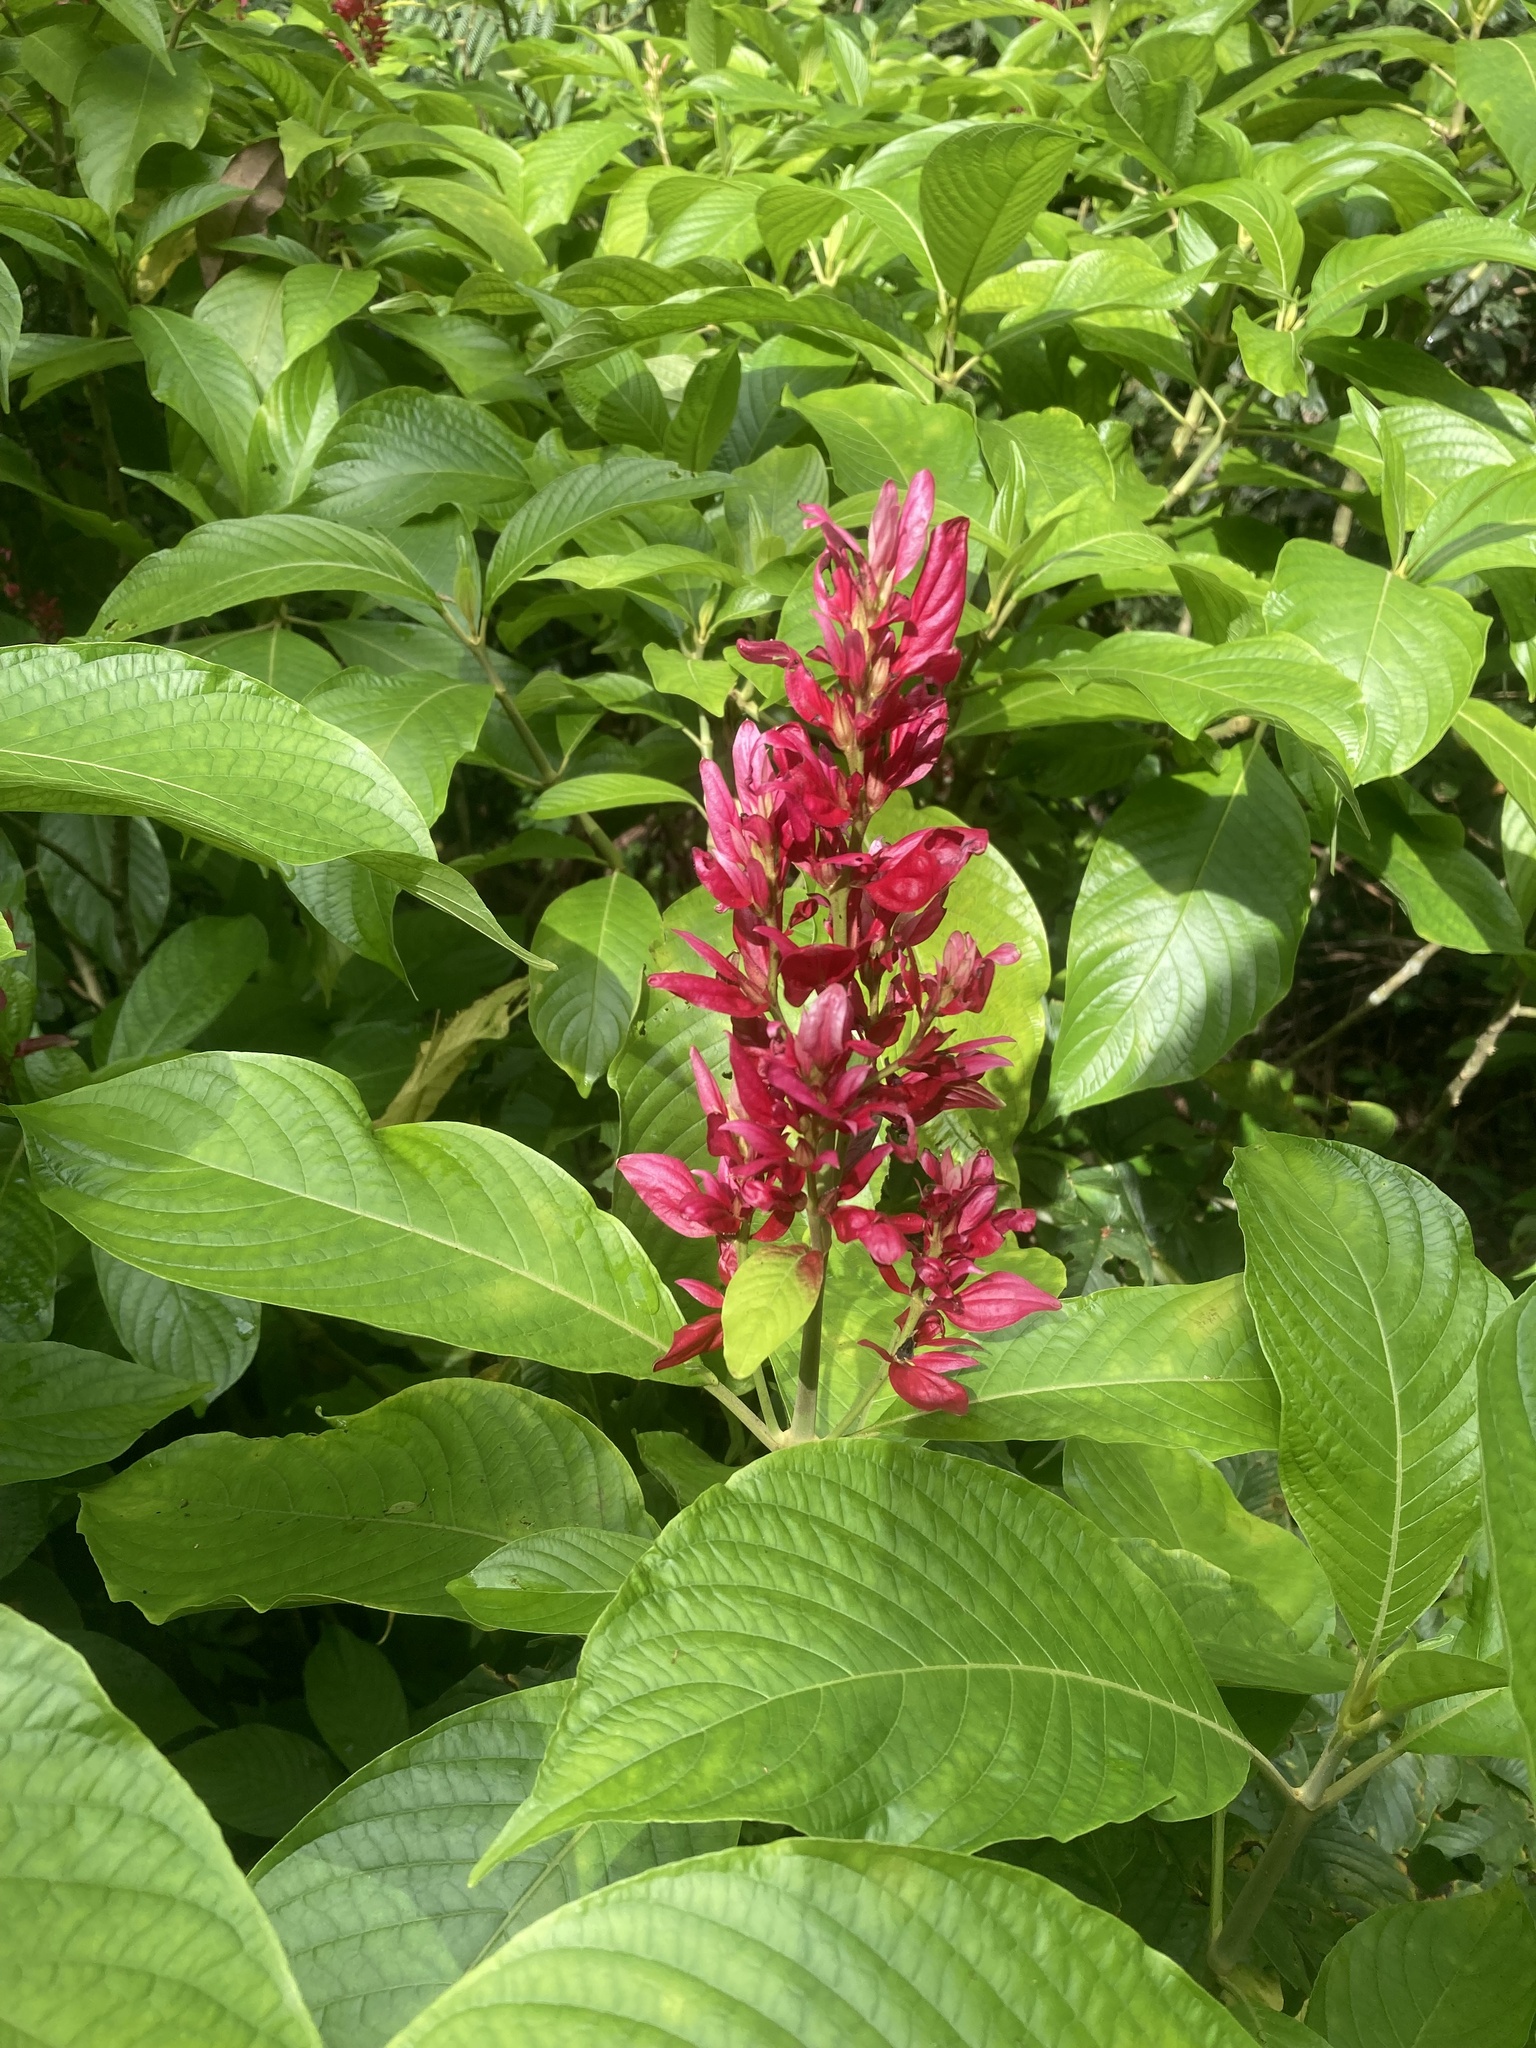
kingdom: Plantae
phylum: Tracheophyta
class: Magnoliopsida
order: Lamiales
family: Acanthaceae
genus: Megaskepasma
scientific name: Megaskepasma erythrochlamys
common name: Brazilian red-cloak
